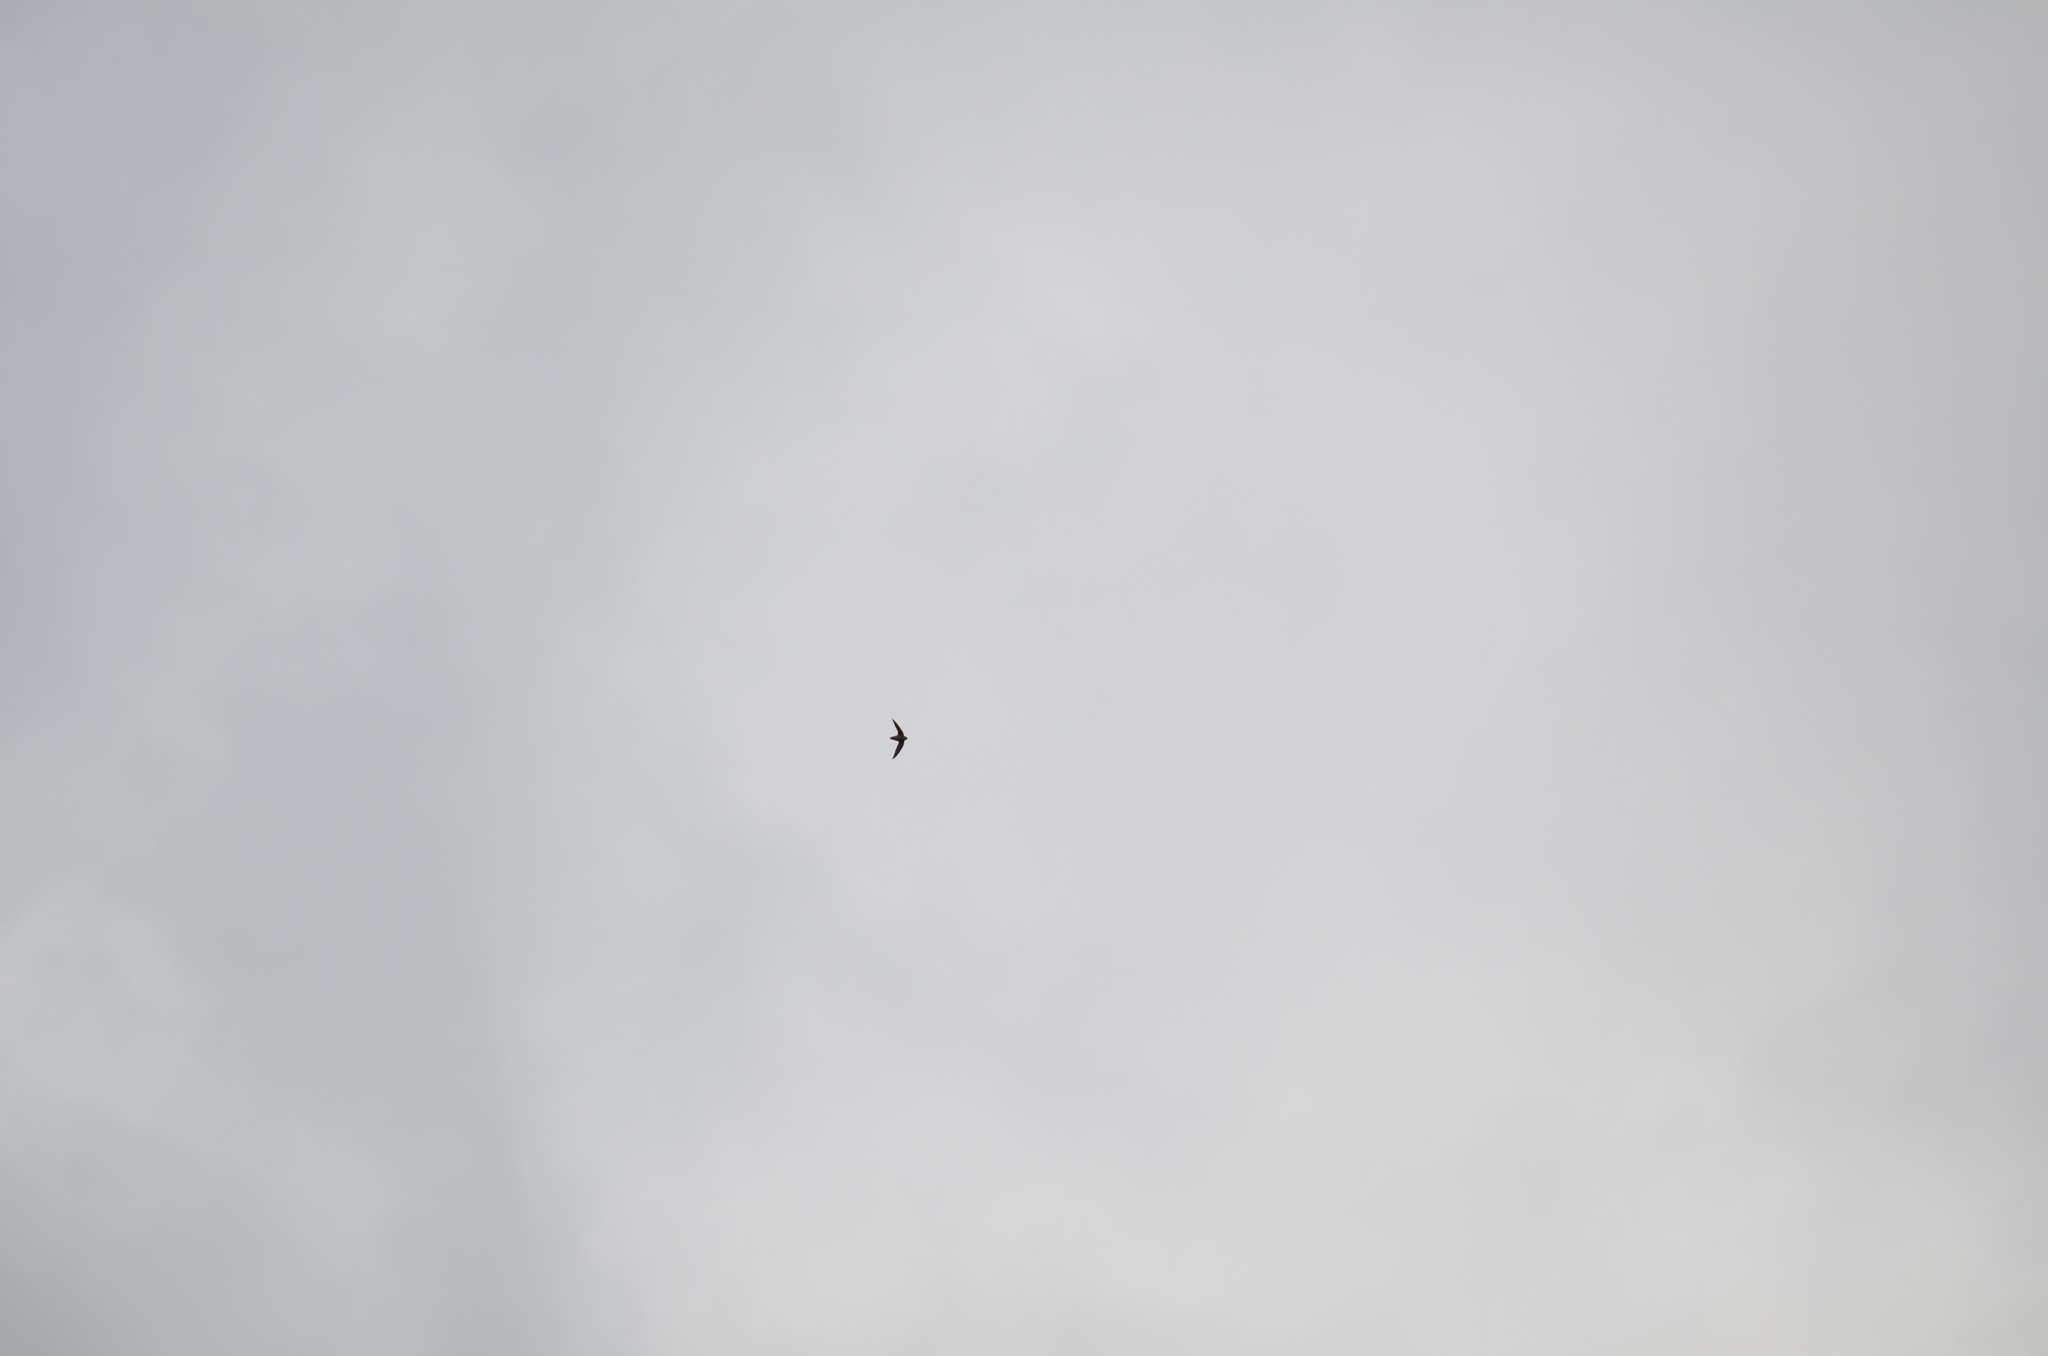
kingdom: Animalia
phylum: Chordata
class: Aves
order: Apodiformes
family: Apodidae
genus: Chaetura
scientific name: Chaetura vauxi
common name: Vaux's swift
